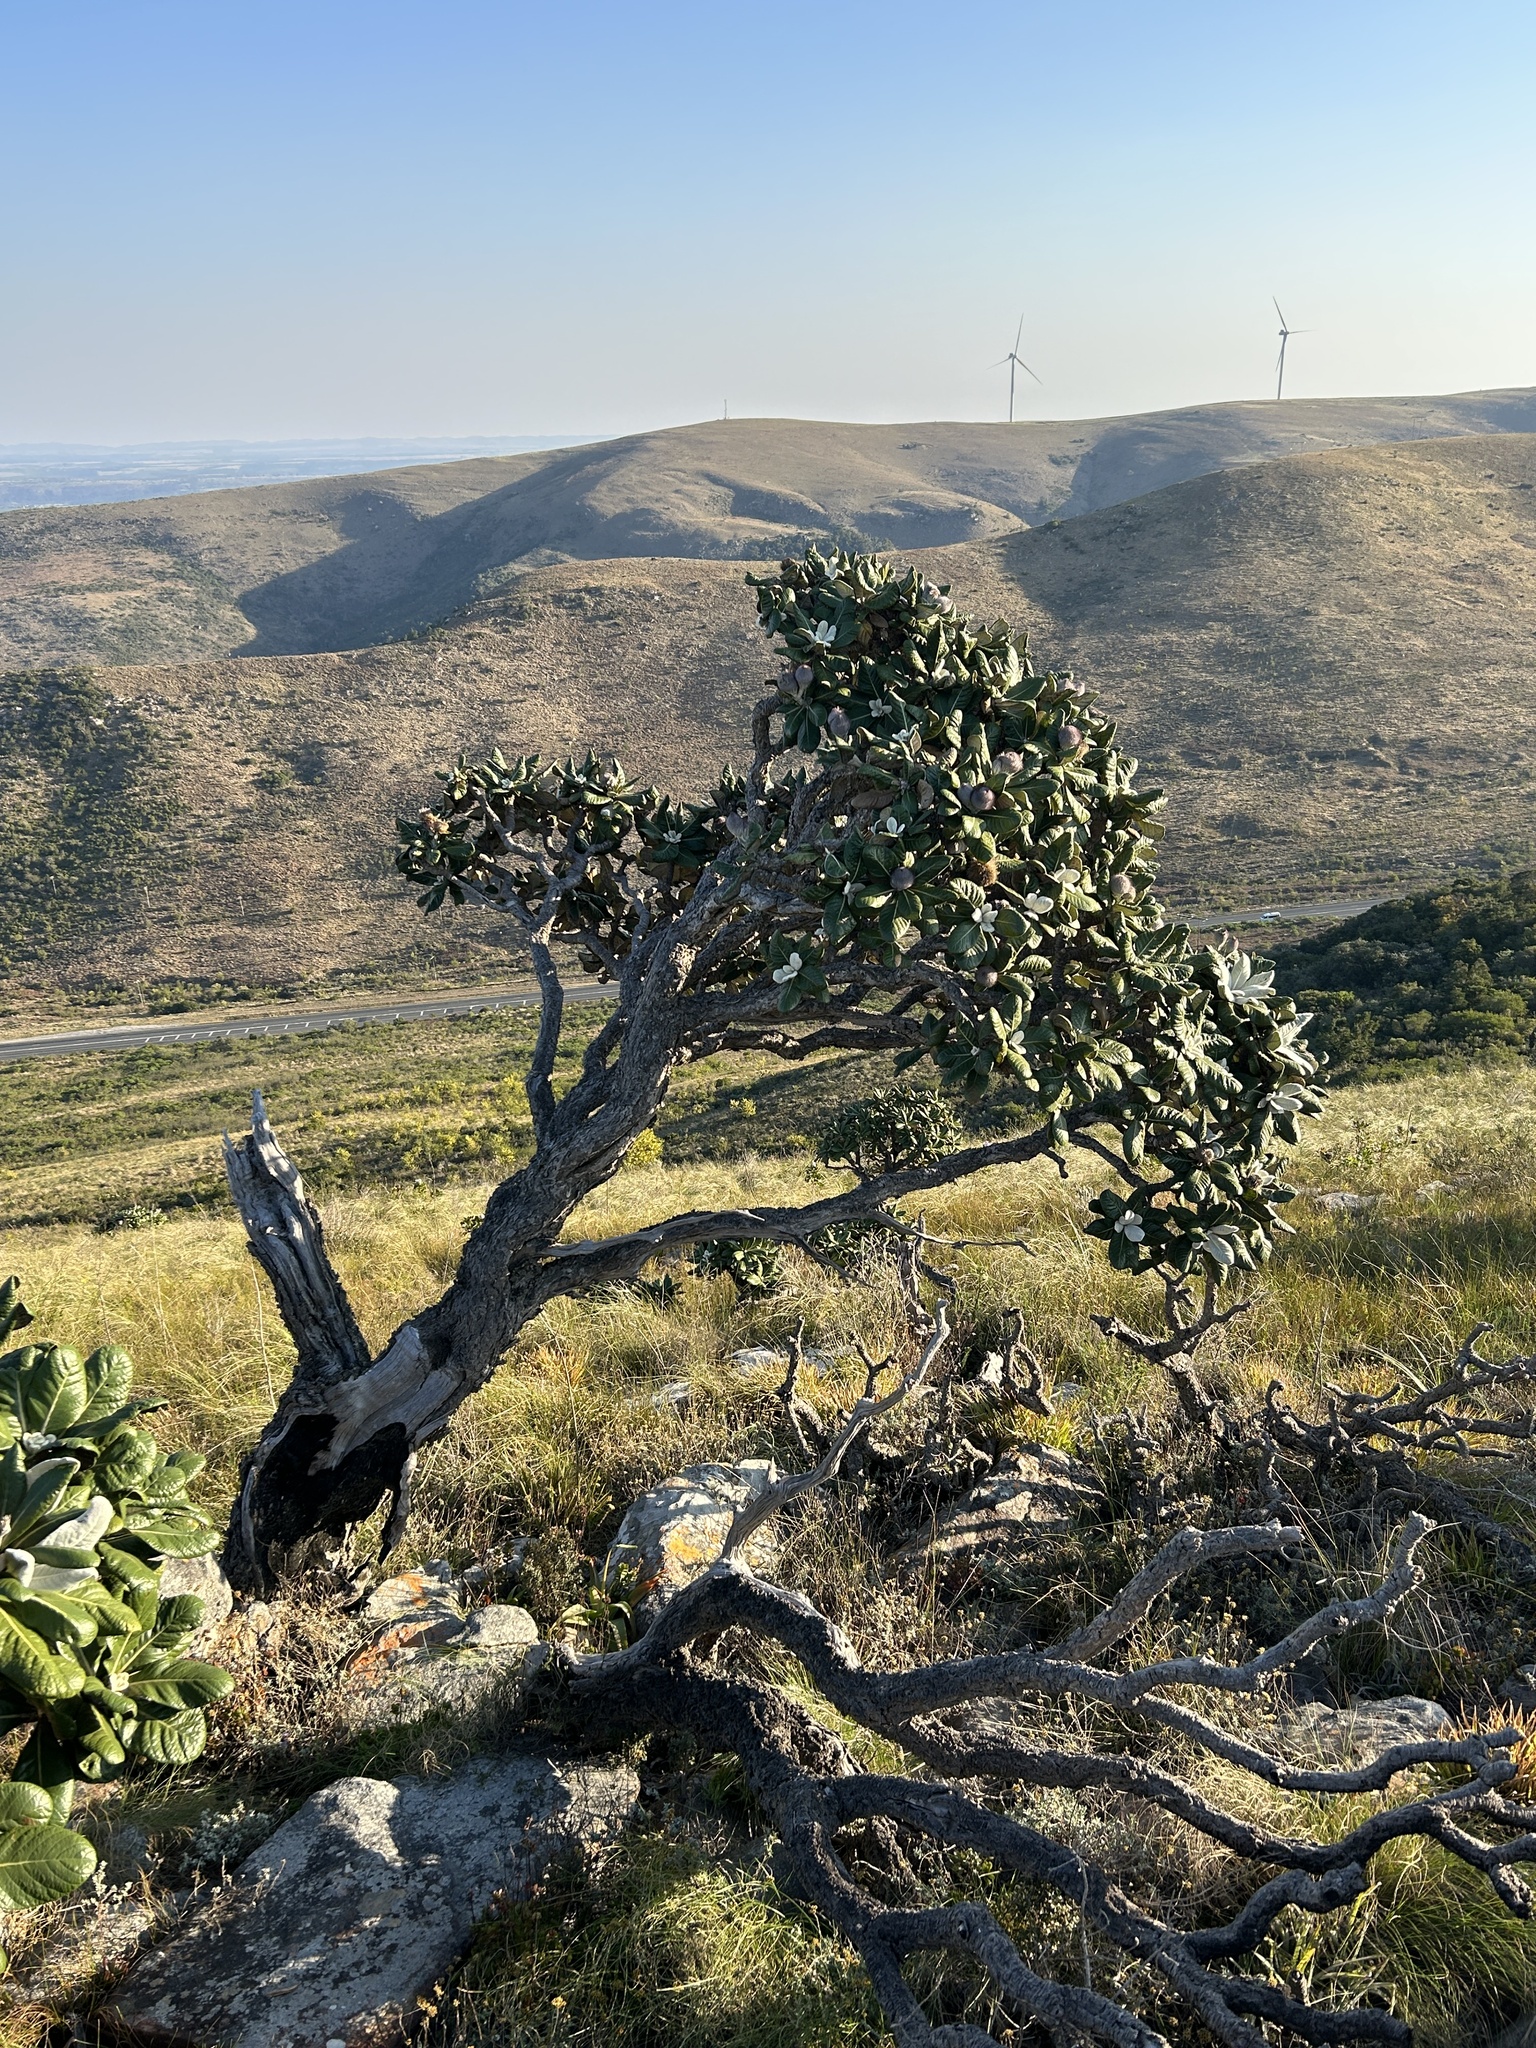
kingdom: Plantae
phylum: Tracheophyta
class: Magnoliopsida
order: Asterales
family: Asteraceae
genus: Oldenburgia
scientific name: Oldenburgia grandis
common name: Suurberg cushion bush
